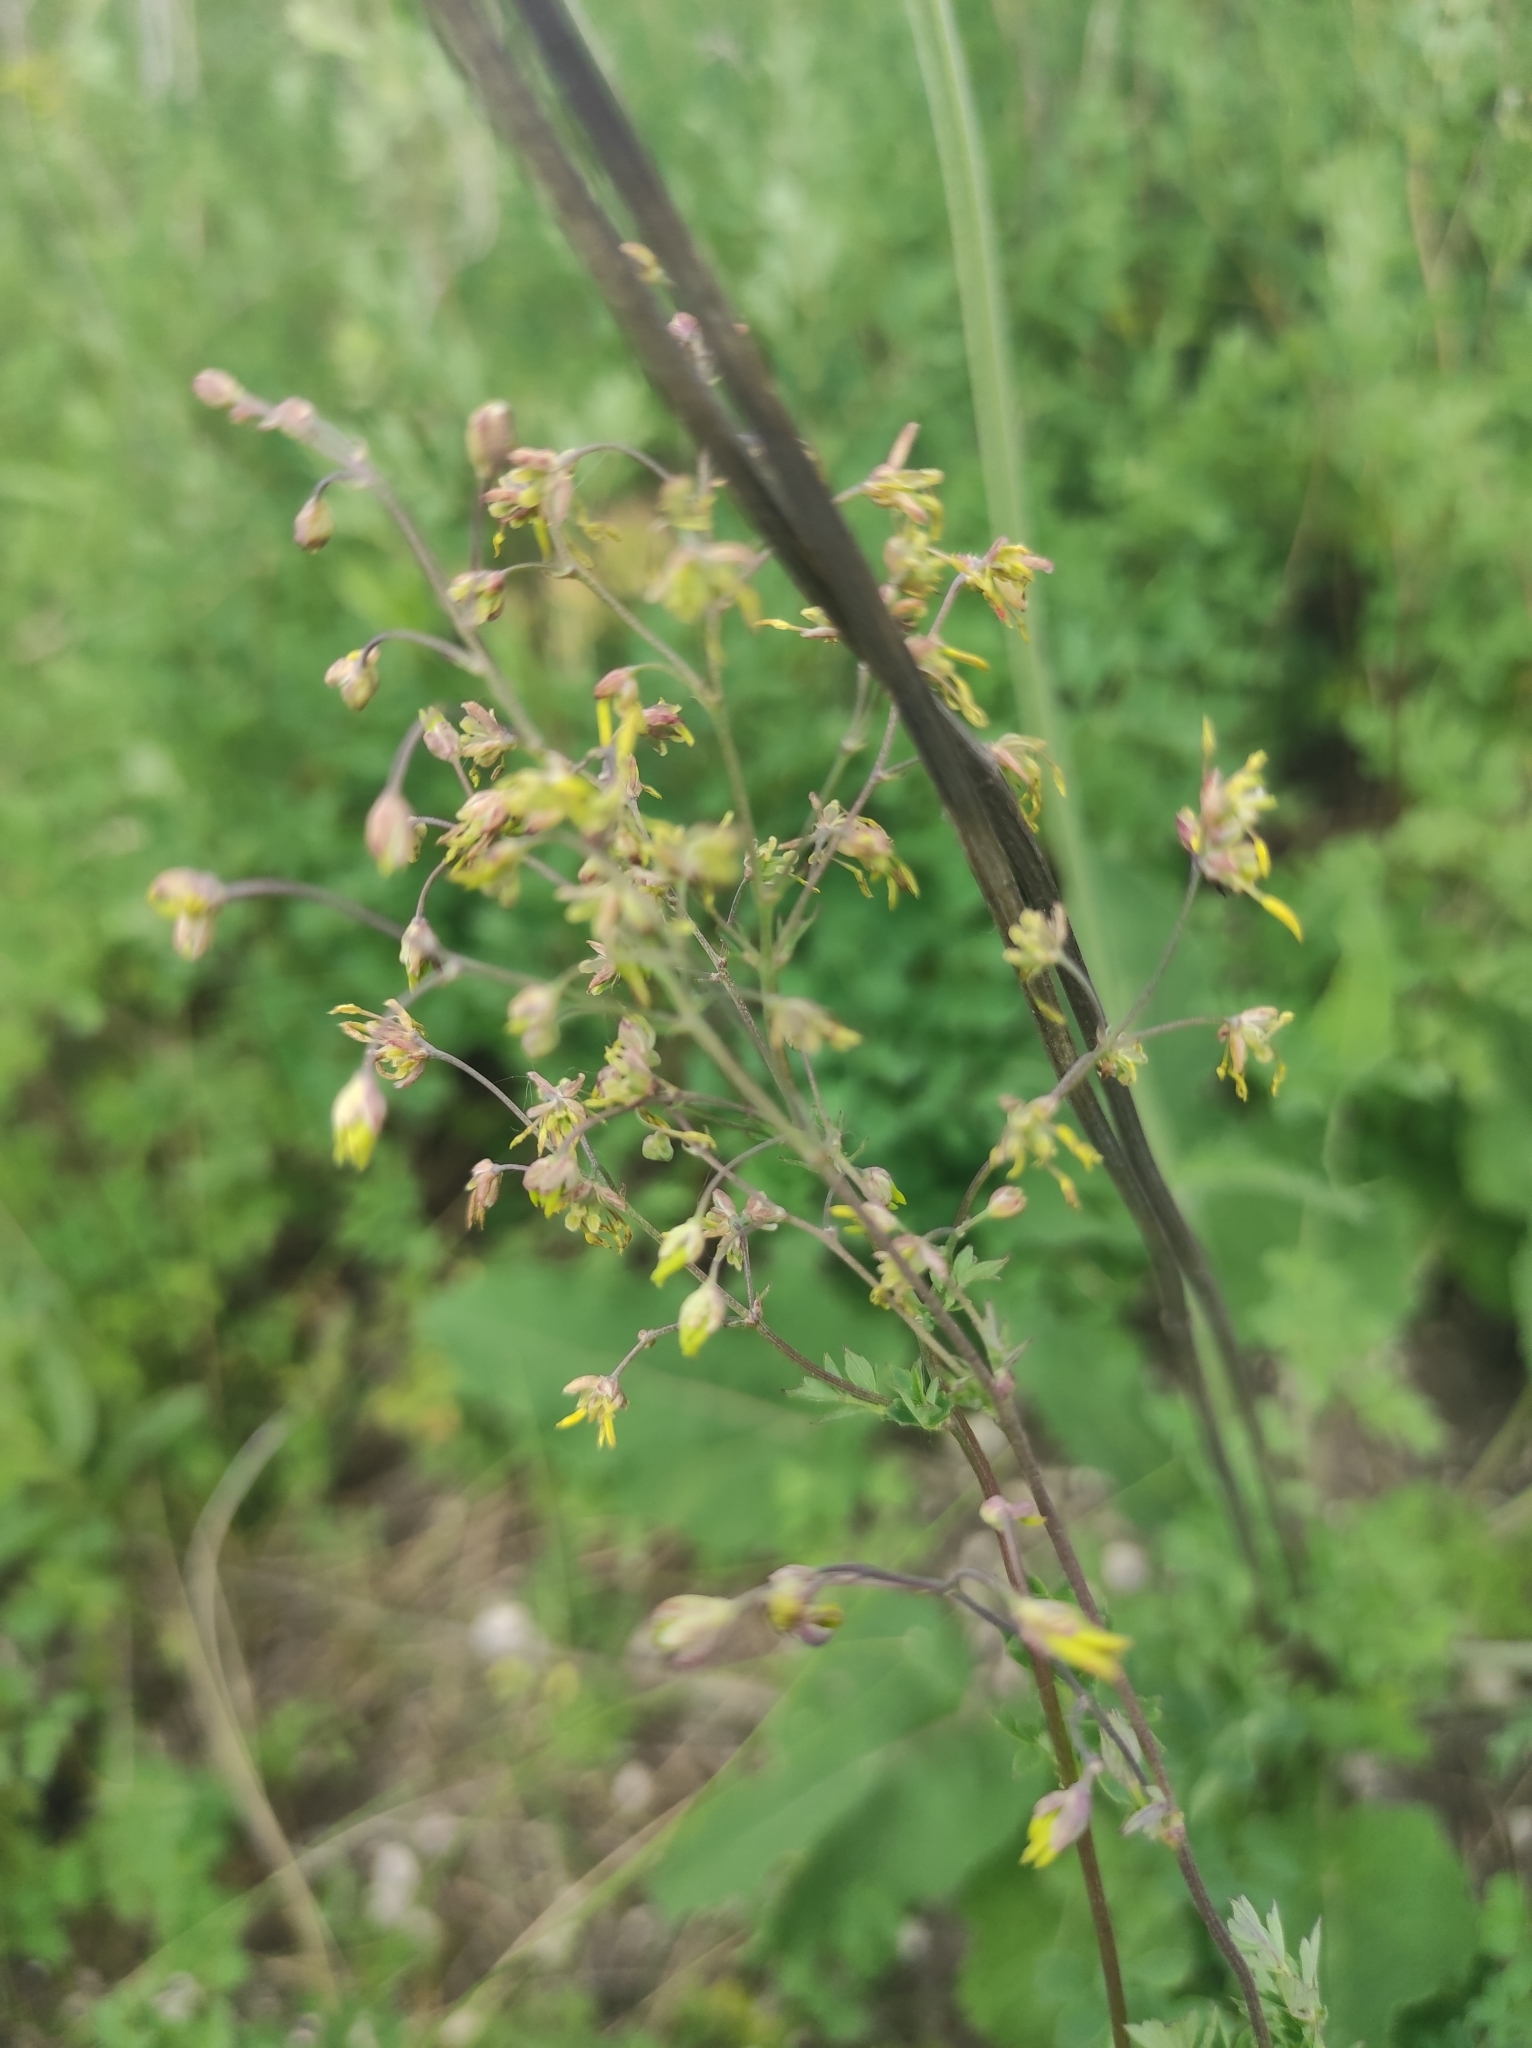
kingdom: Plantae
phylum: Tracheophyta
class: Magnoliopsida
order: Ranunculales
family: Ranunculaceae
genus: Thalictrum
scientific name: Thalictrum minus
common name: Lesser meadow-rue
